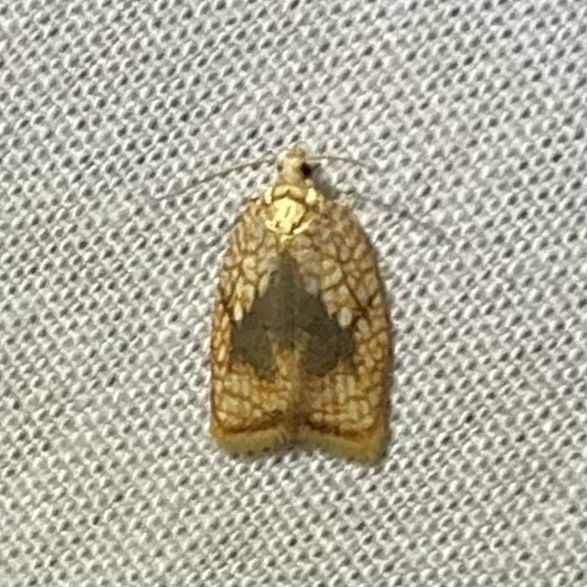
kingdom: Animalia
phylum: Arthropoda
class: Insecta
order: Lepidoptera
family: Tortricidae
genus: Acleris
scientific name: Acleris forsskaleana
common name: Maple button
